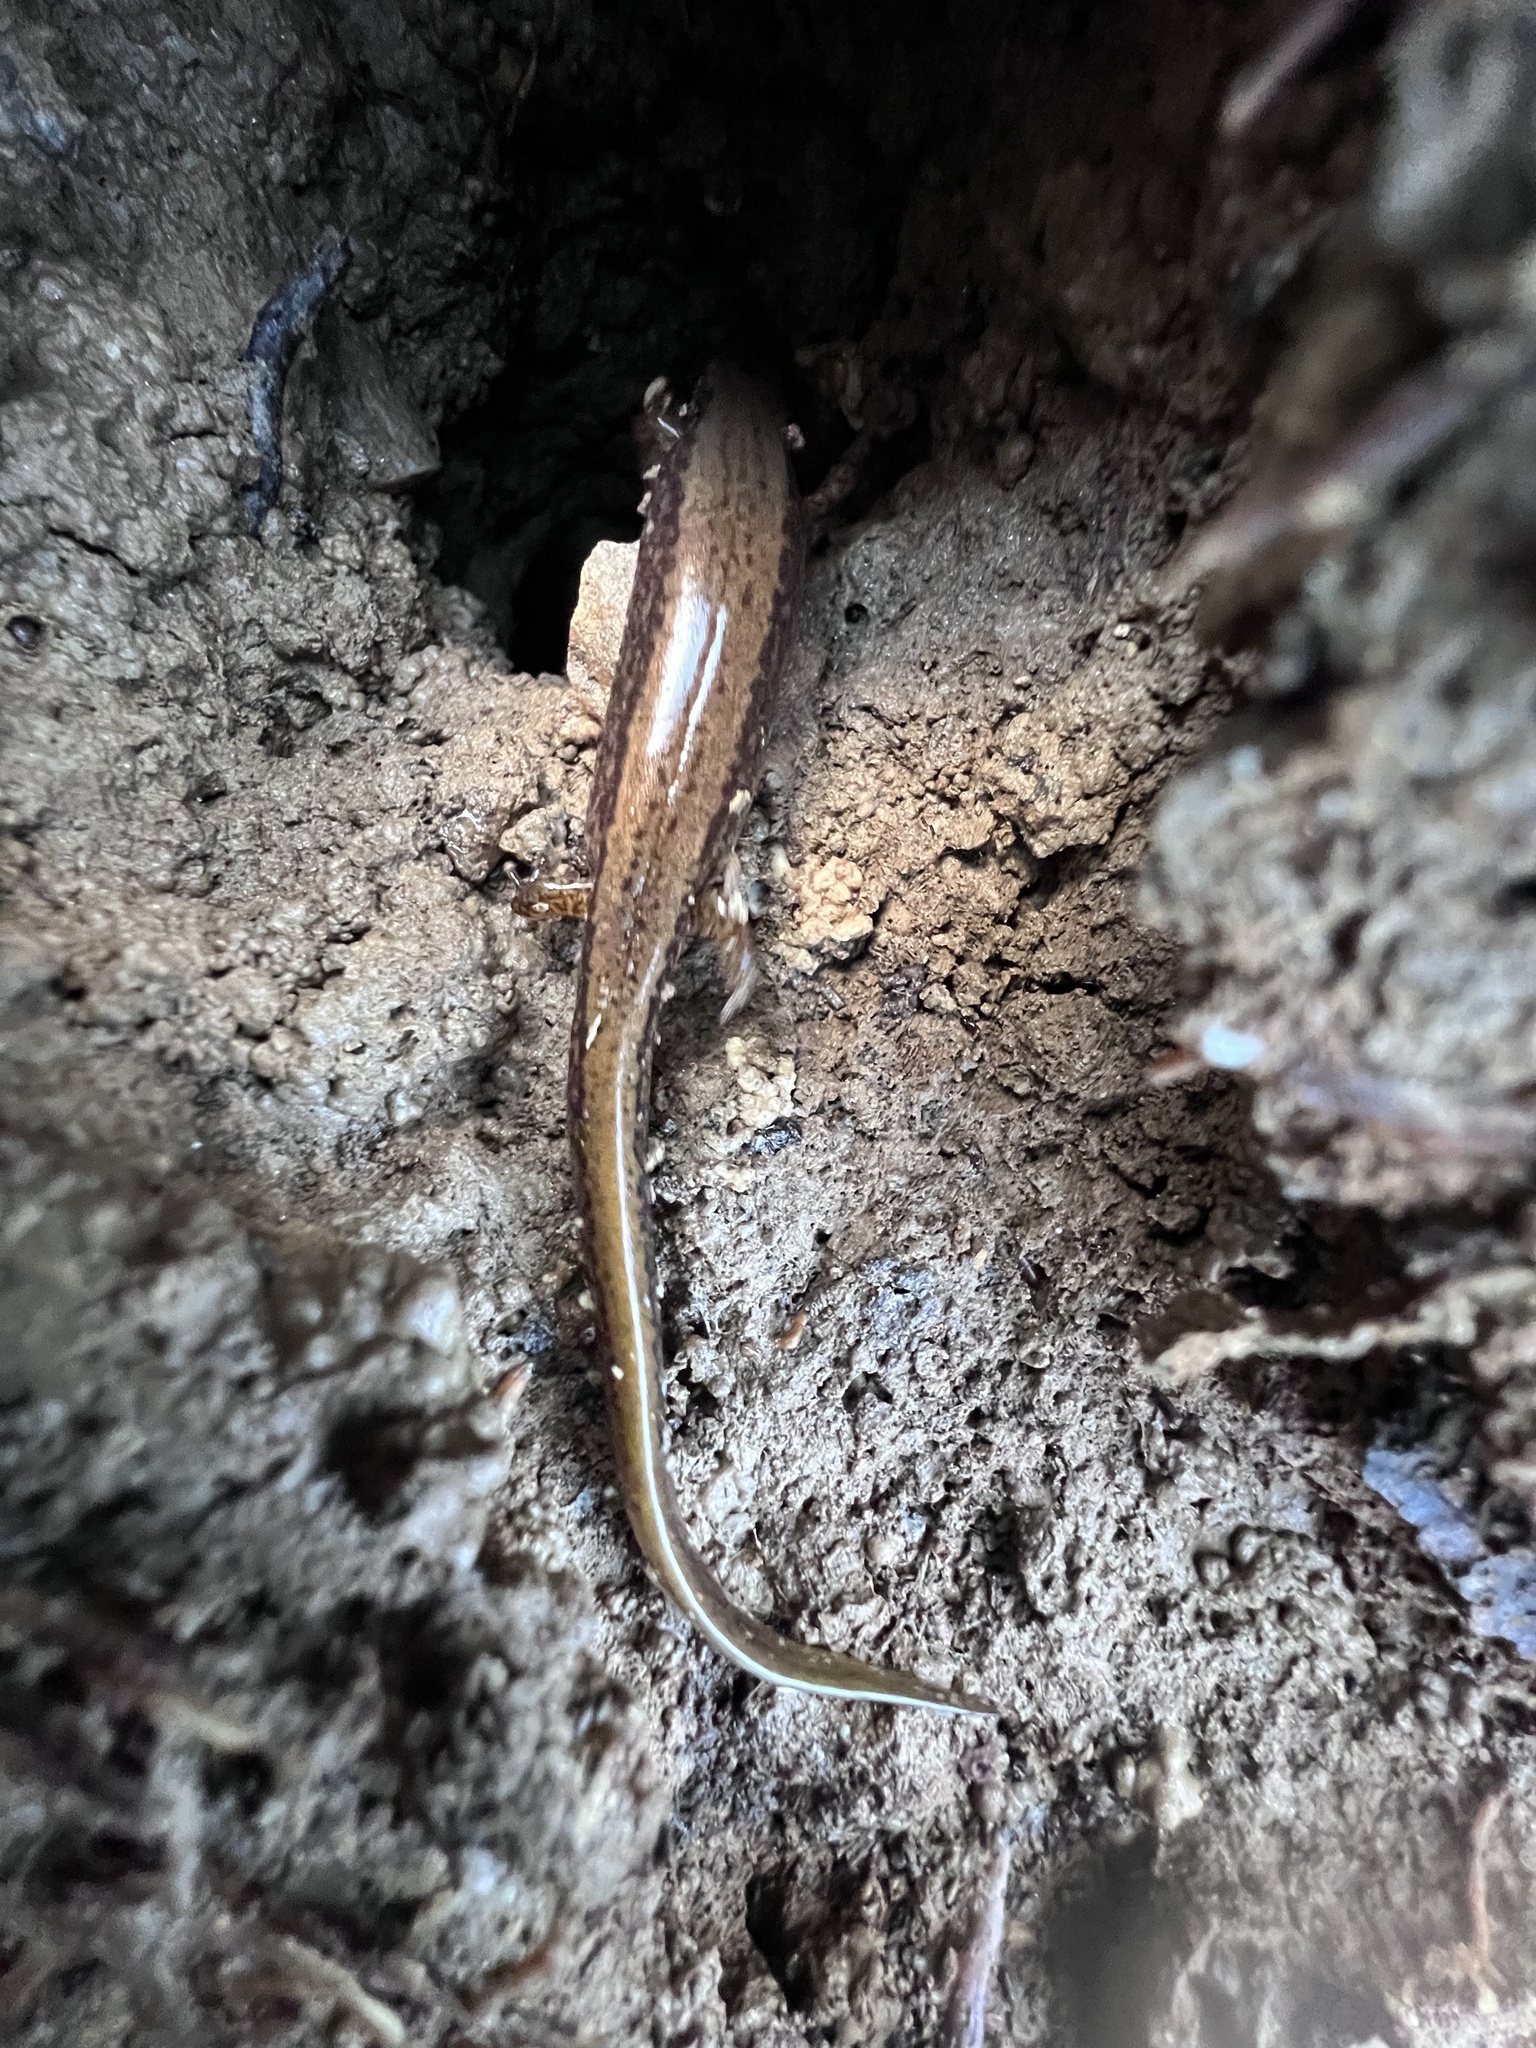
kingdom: Animalia
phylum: Chordata
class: Amphibia
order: Caudata
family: Plethodontidae
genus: Eurycea
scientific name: Eurycea bislineata
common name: Northern two-lined salamander
